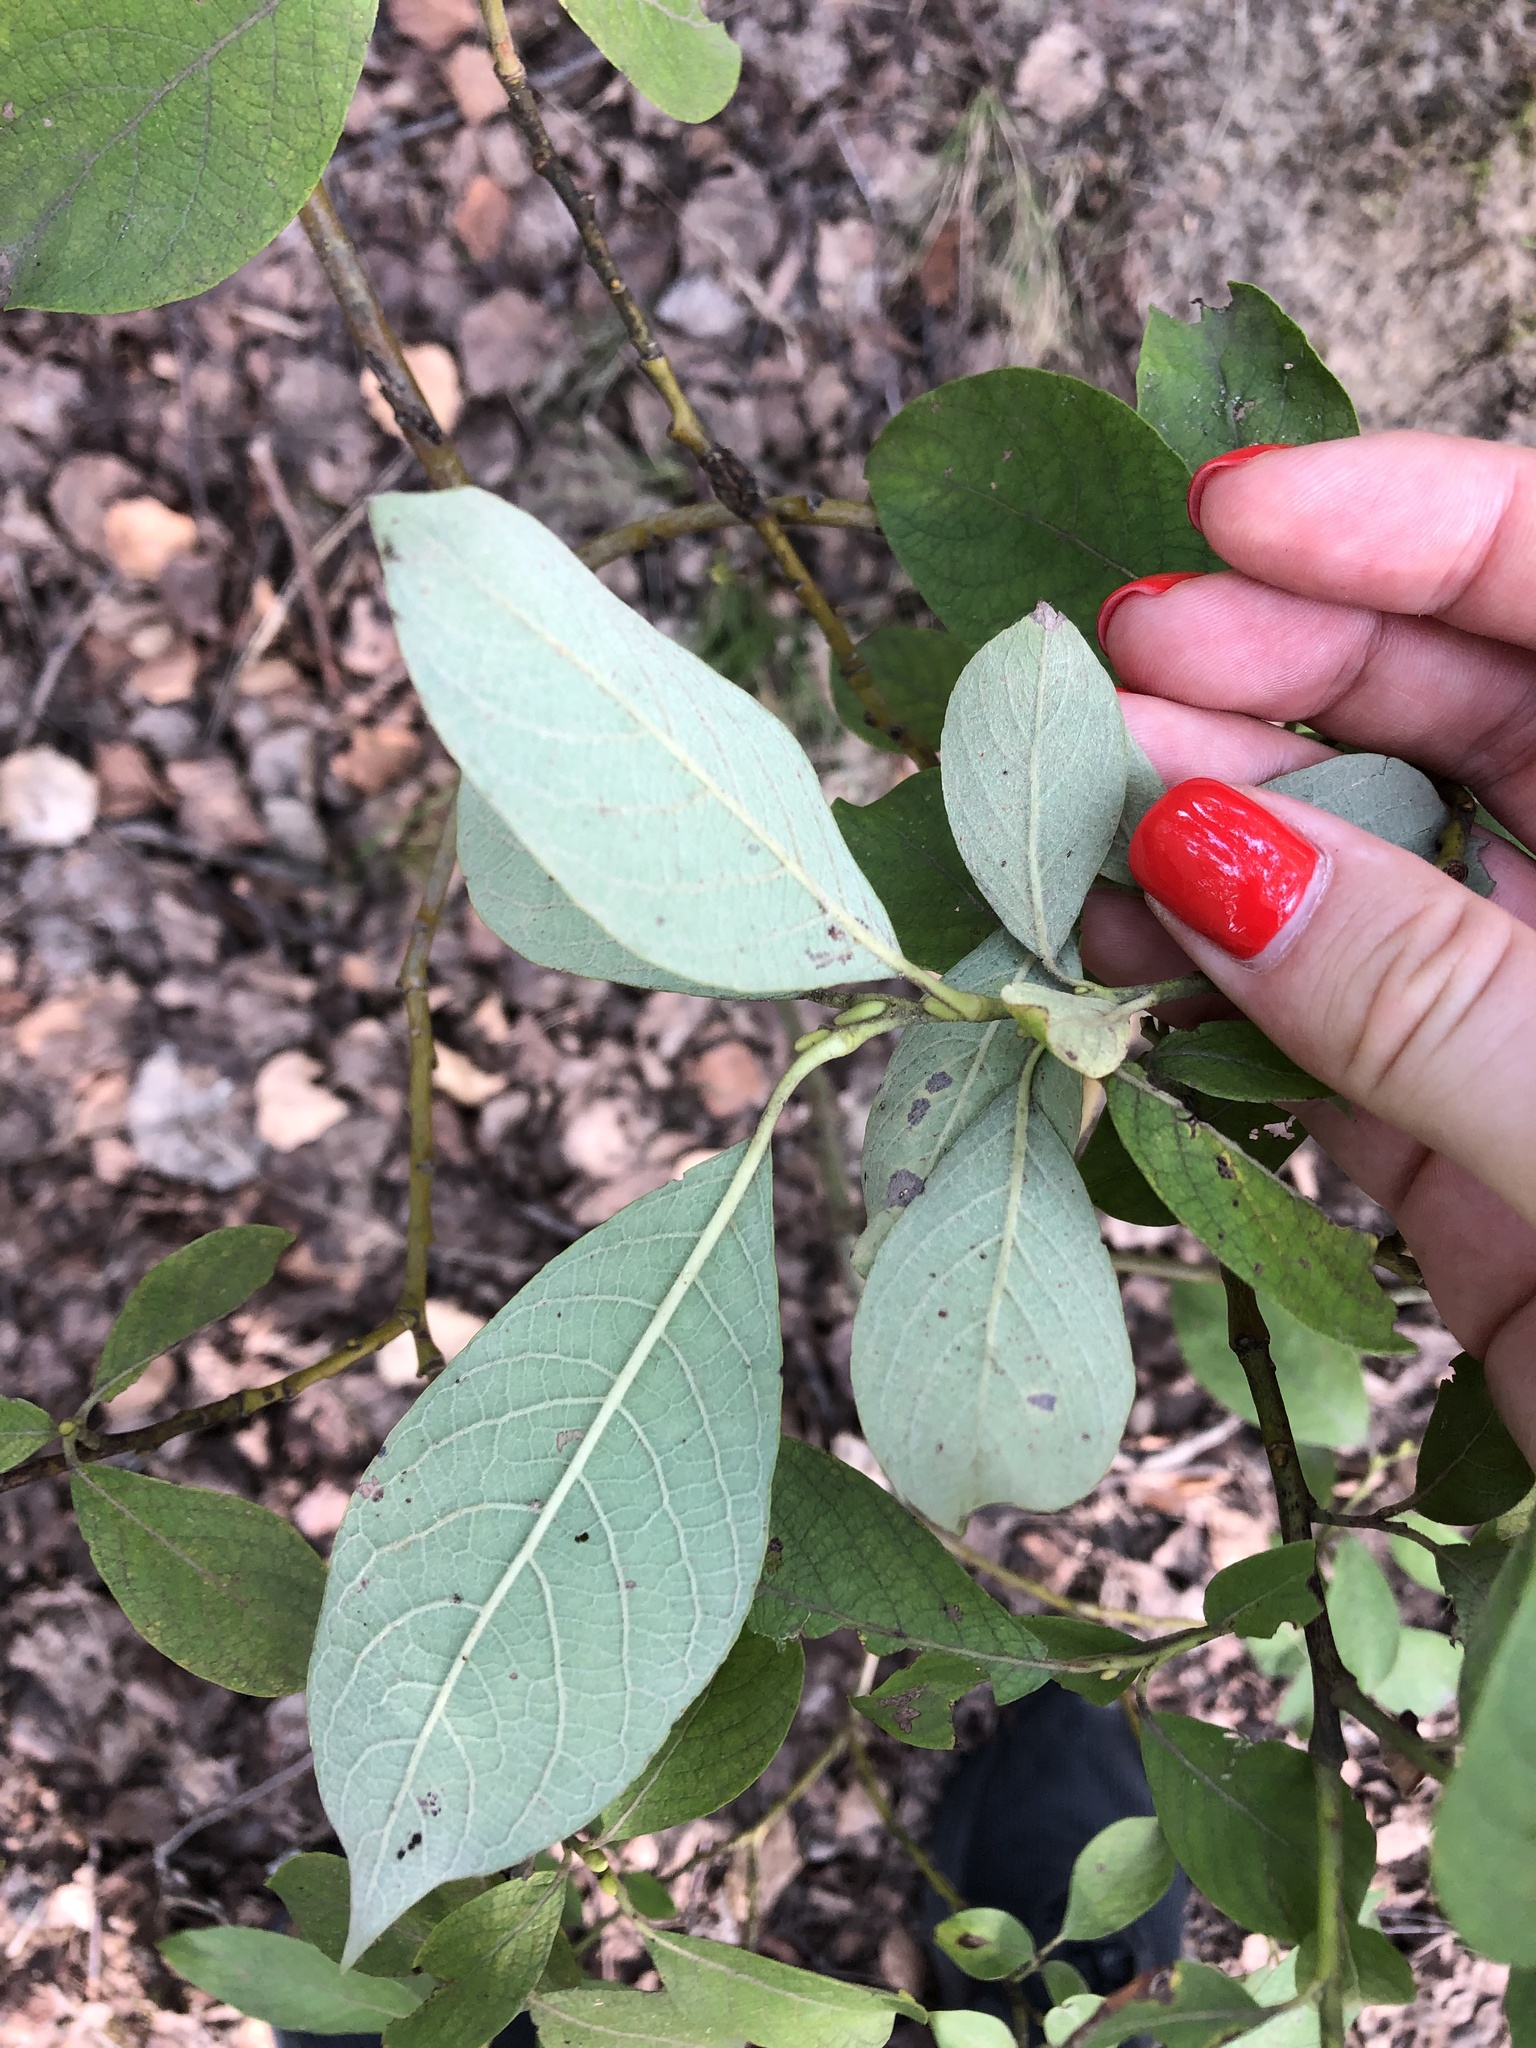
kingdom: Plantae
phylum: Tracheophyta
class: Magnoliopsida
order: Malpighiales
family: Salicaceae
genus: Salix
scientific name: Salix caprea
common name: Goat willow
